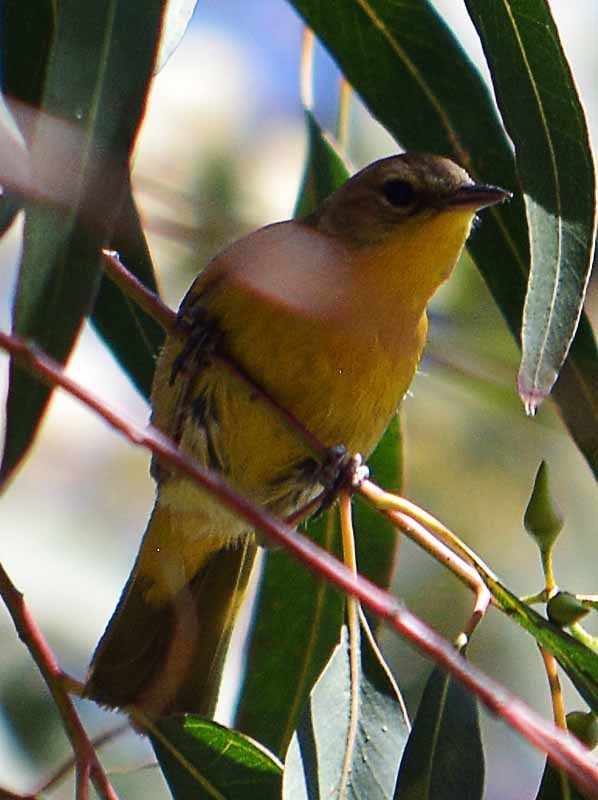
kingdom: Animalia
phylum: Chordata
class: Aves
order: Passeriformes
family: Parulidae
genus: Geothlypis
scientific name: Geothlypis trichas
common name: Common yellowthroat
